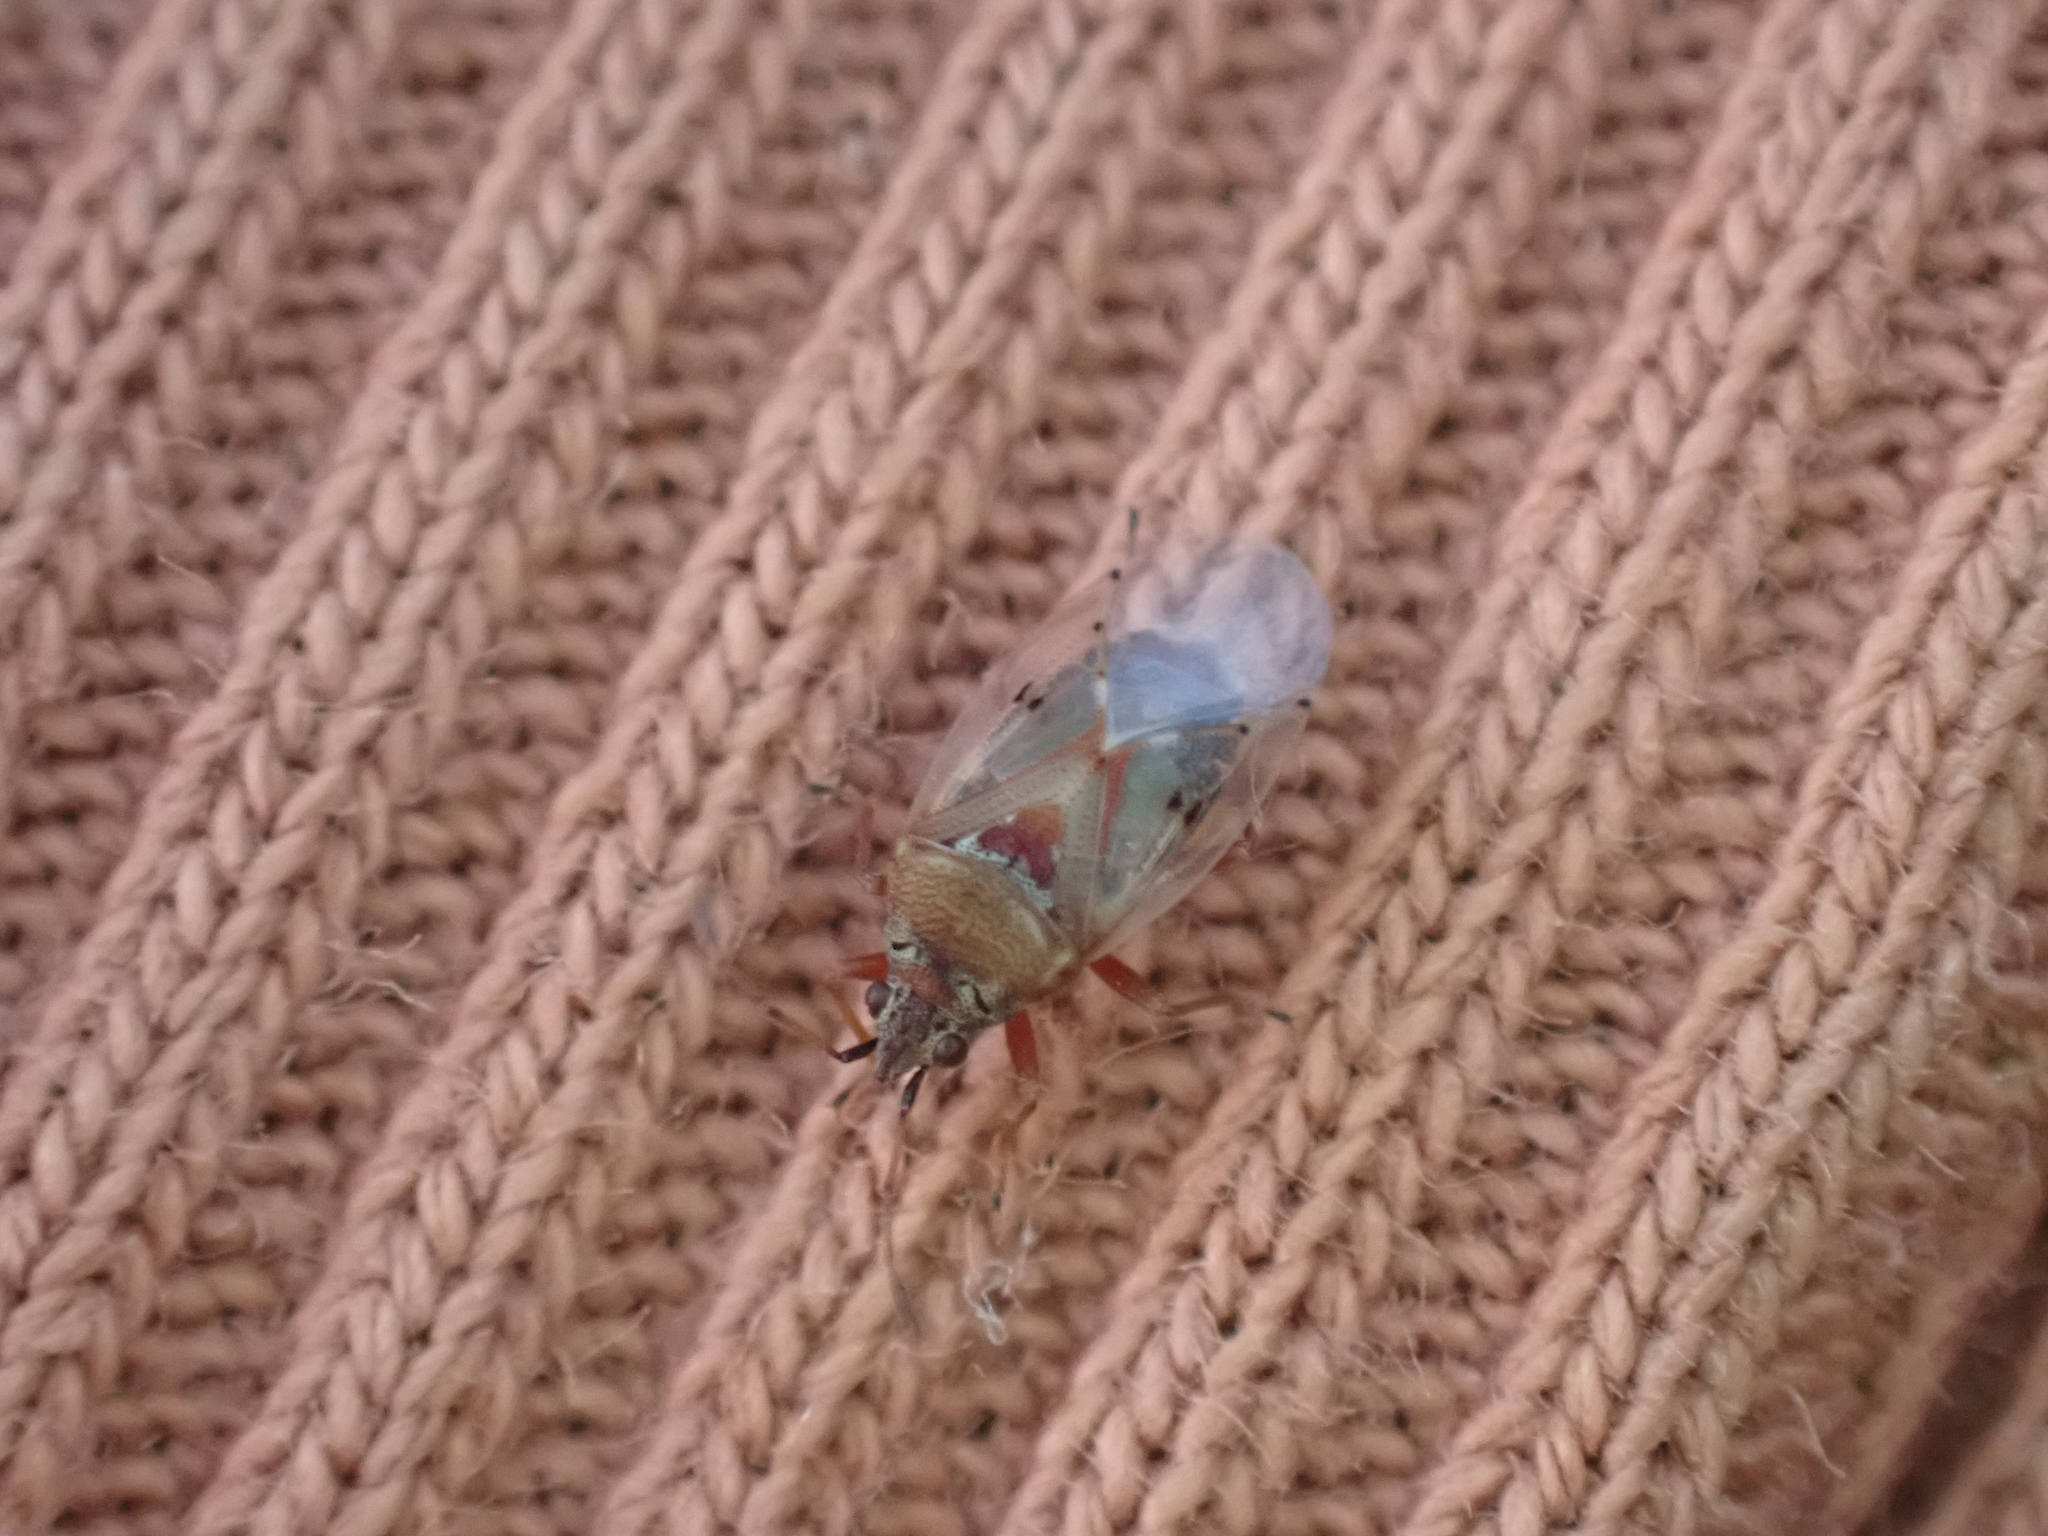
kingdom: Animalia
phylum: Arthropoda
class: Insecta
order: Hemiptera
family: Lygaeidae
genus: Kleidocerys
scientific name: Kleidocerys resedae
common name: Birch catkin bug
